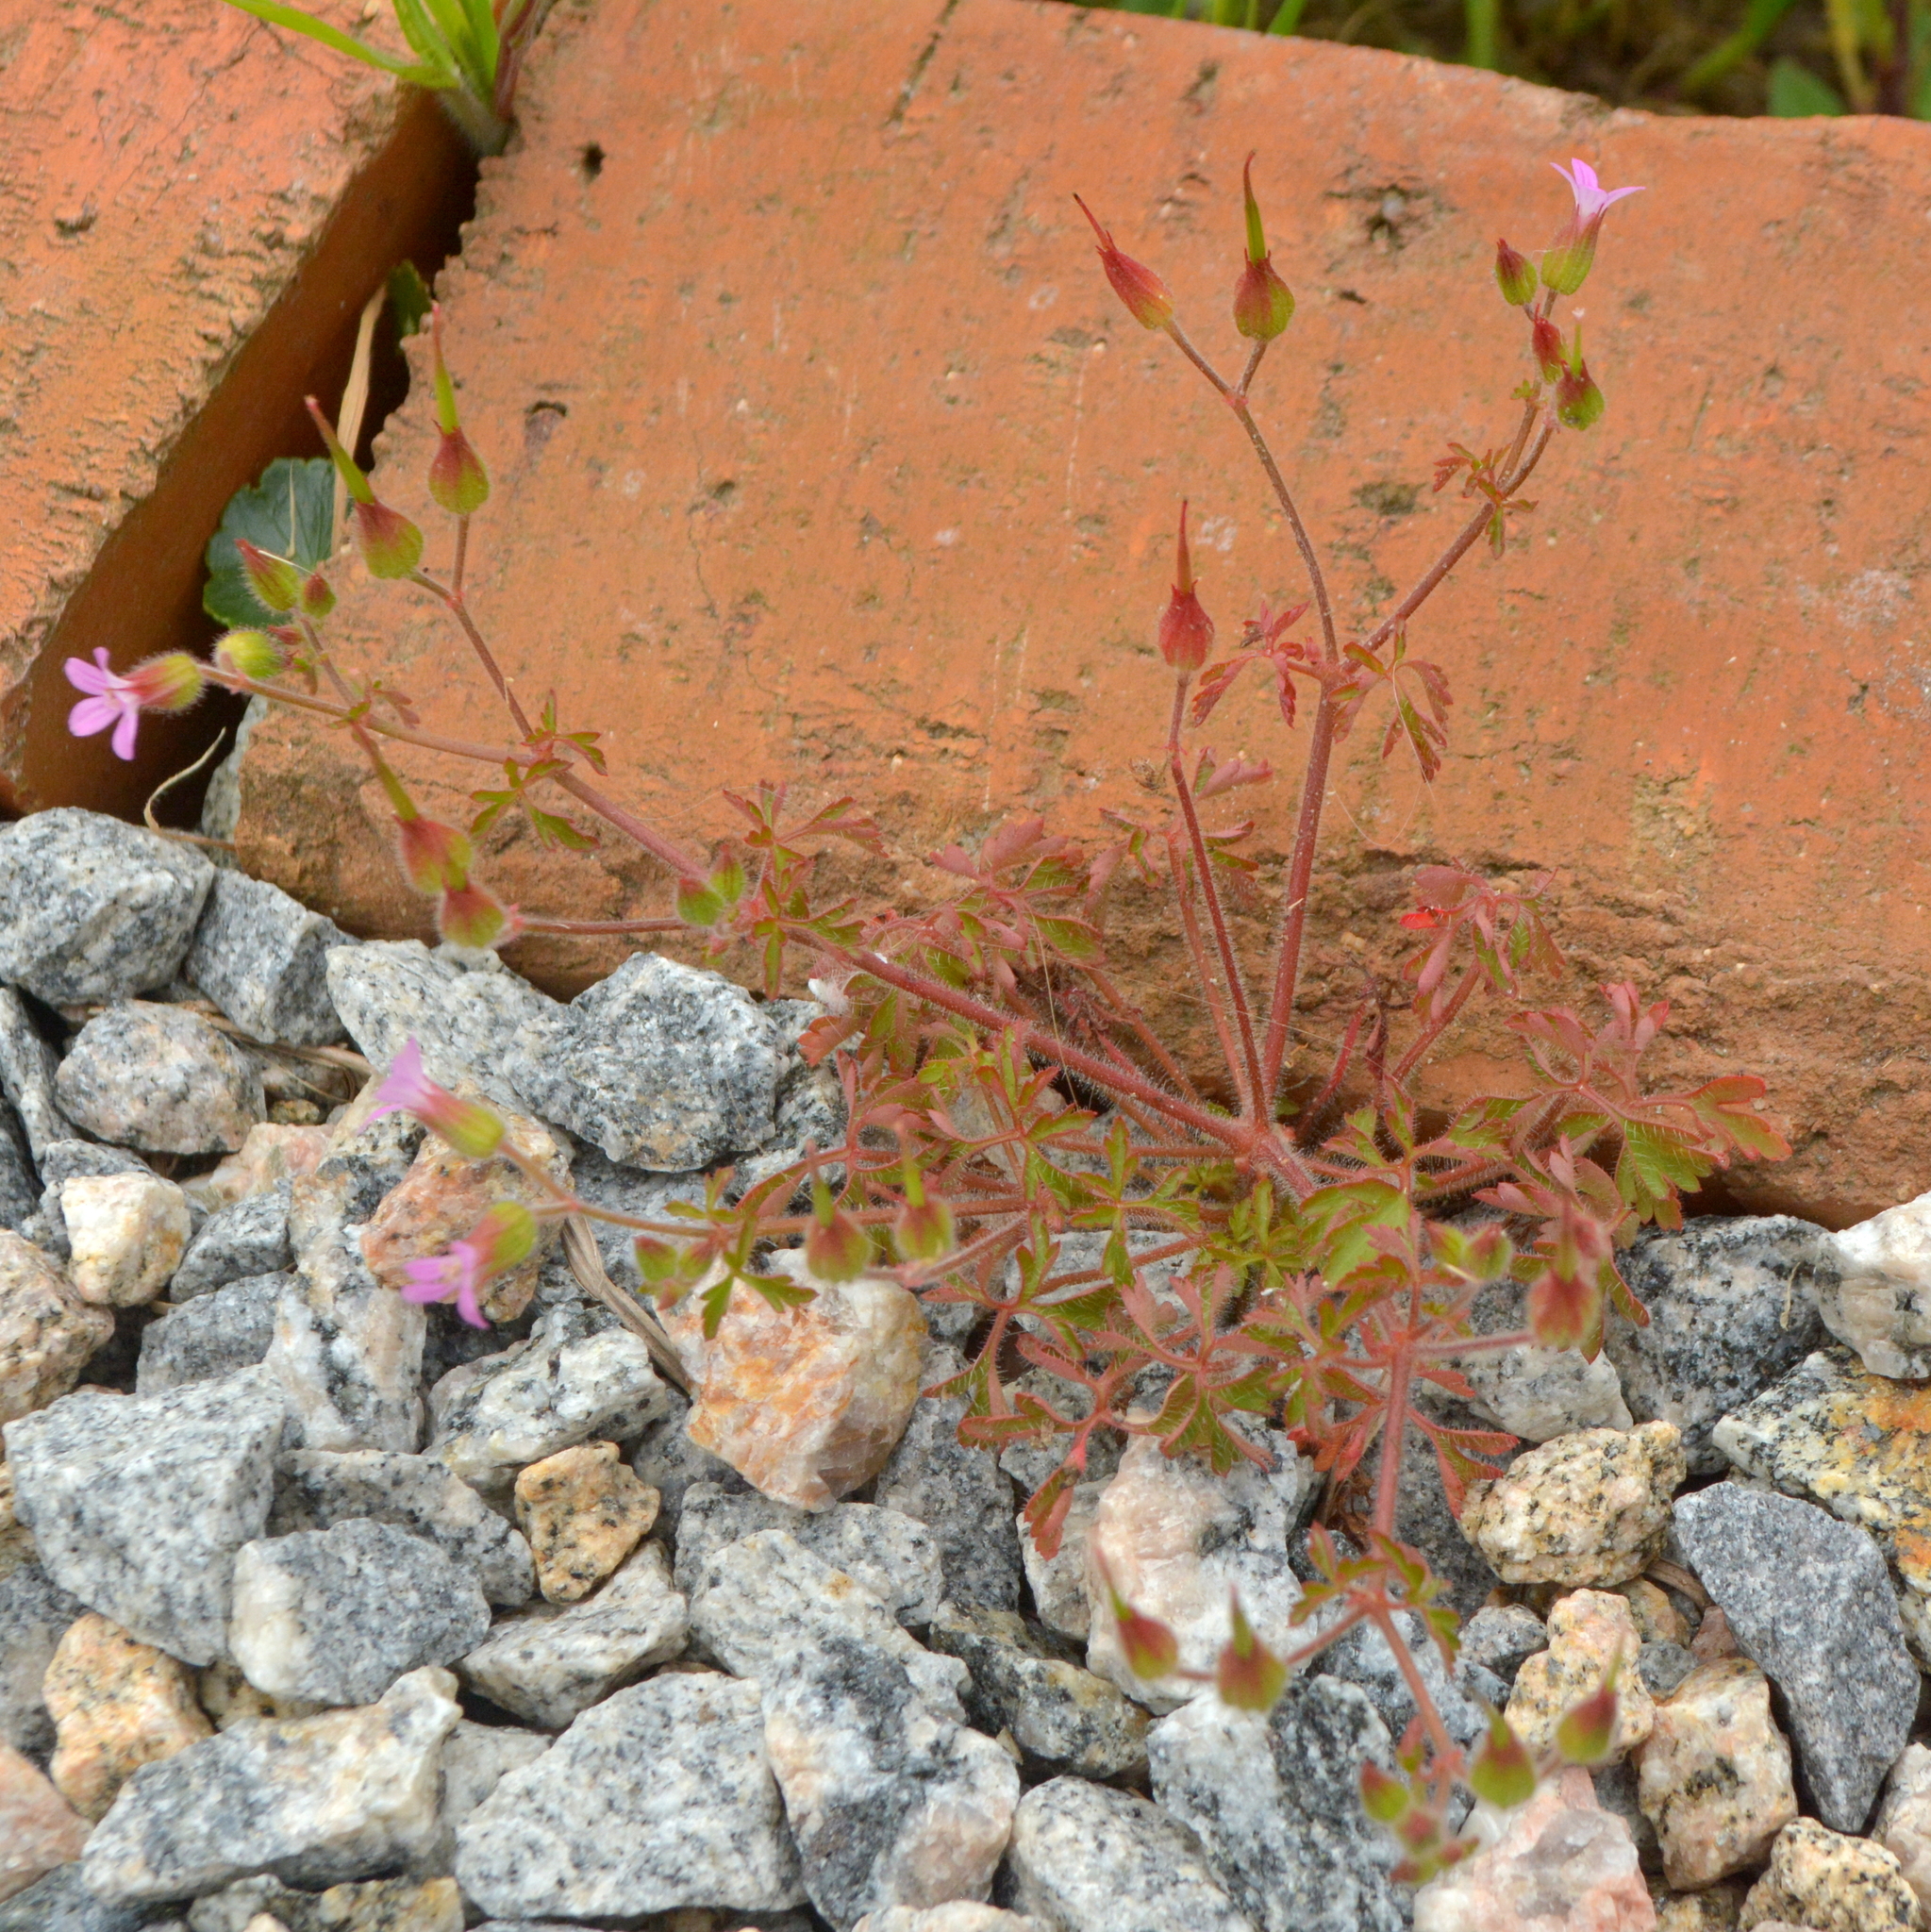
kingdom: Plantae
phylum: Tracheophyta
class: Magnoliopsida
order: Geraniales
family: Geraniaceae
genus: Geranium
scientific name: Geranium purpureum
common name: Little-robin
